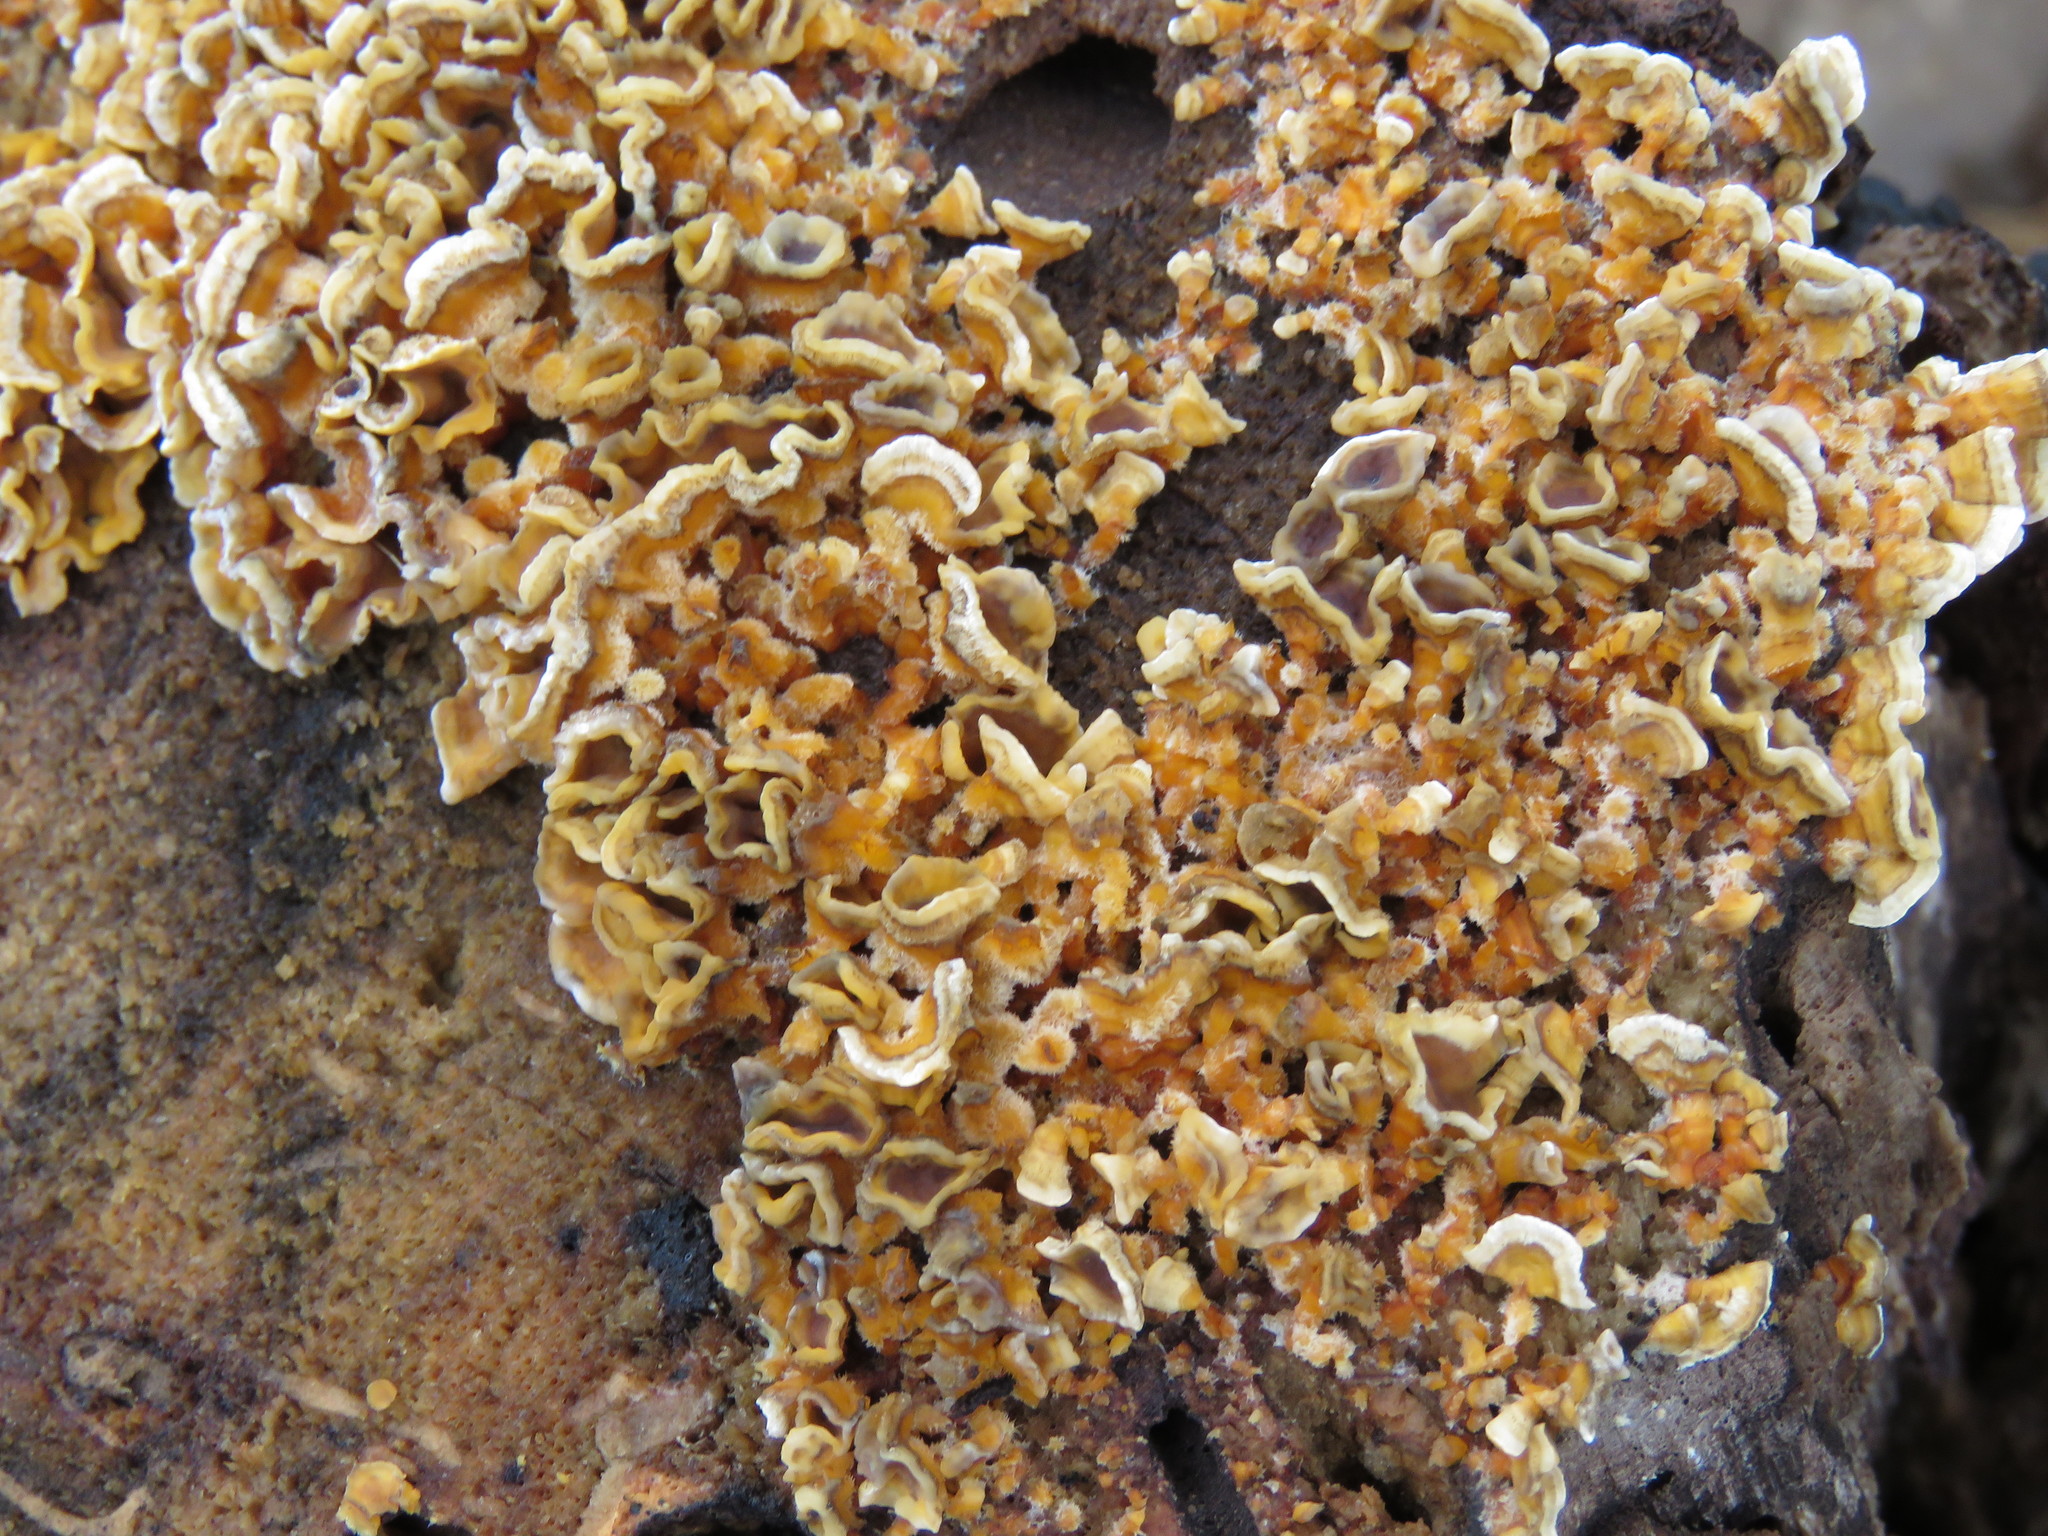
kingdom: Fungi
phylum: Basidiomycota
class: Agaricomycetes
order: Russulales
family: Stereaceae
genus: Stereum
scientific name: Stereum hirsutum
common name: Hairy curtain crust
